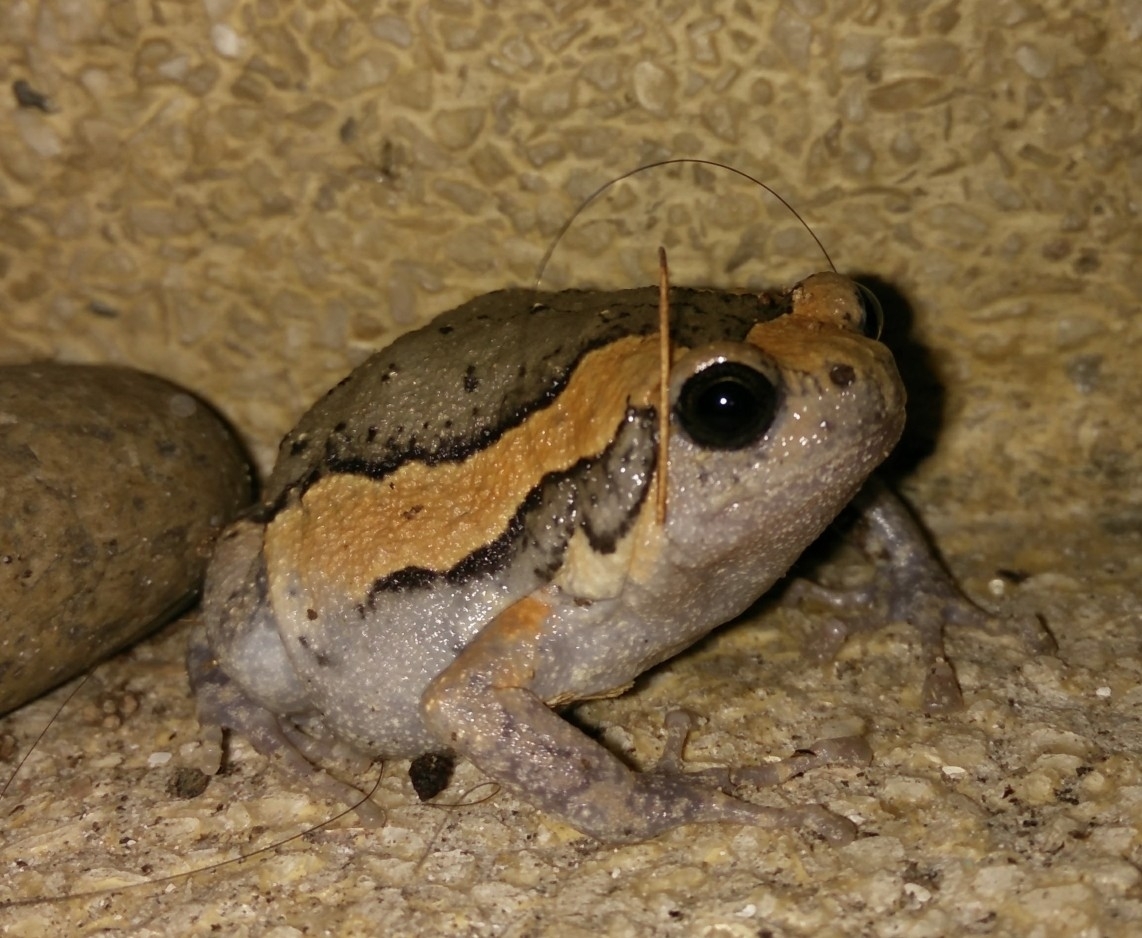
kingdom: Animalia
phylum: Chordata
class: Amphibia
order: Anura
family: Microhylidae
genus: Kaloula
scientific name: Kaloula pulchra
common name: Common,banded bullfrog
